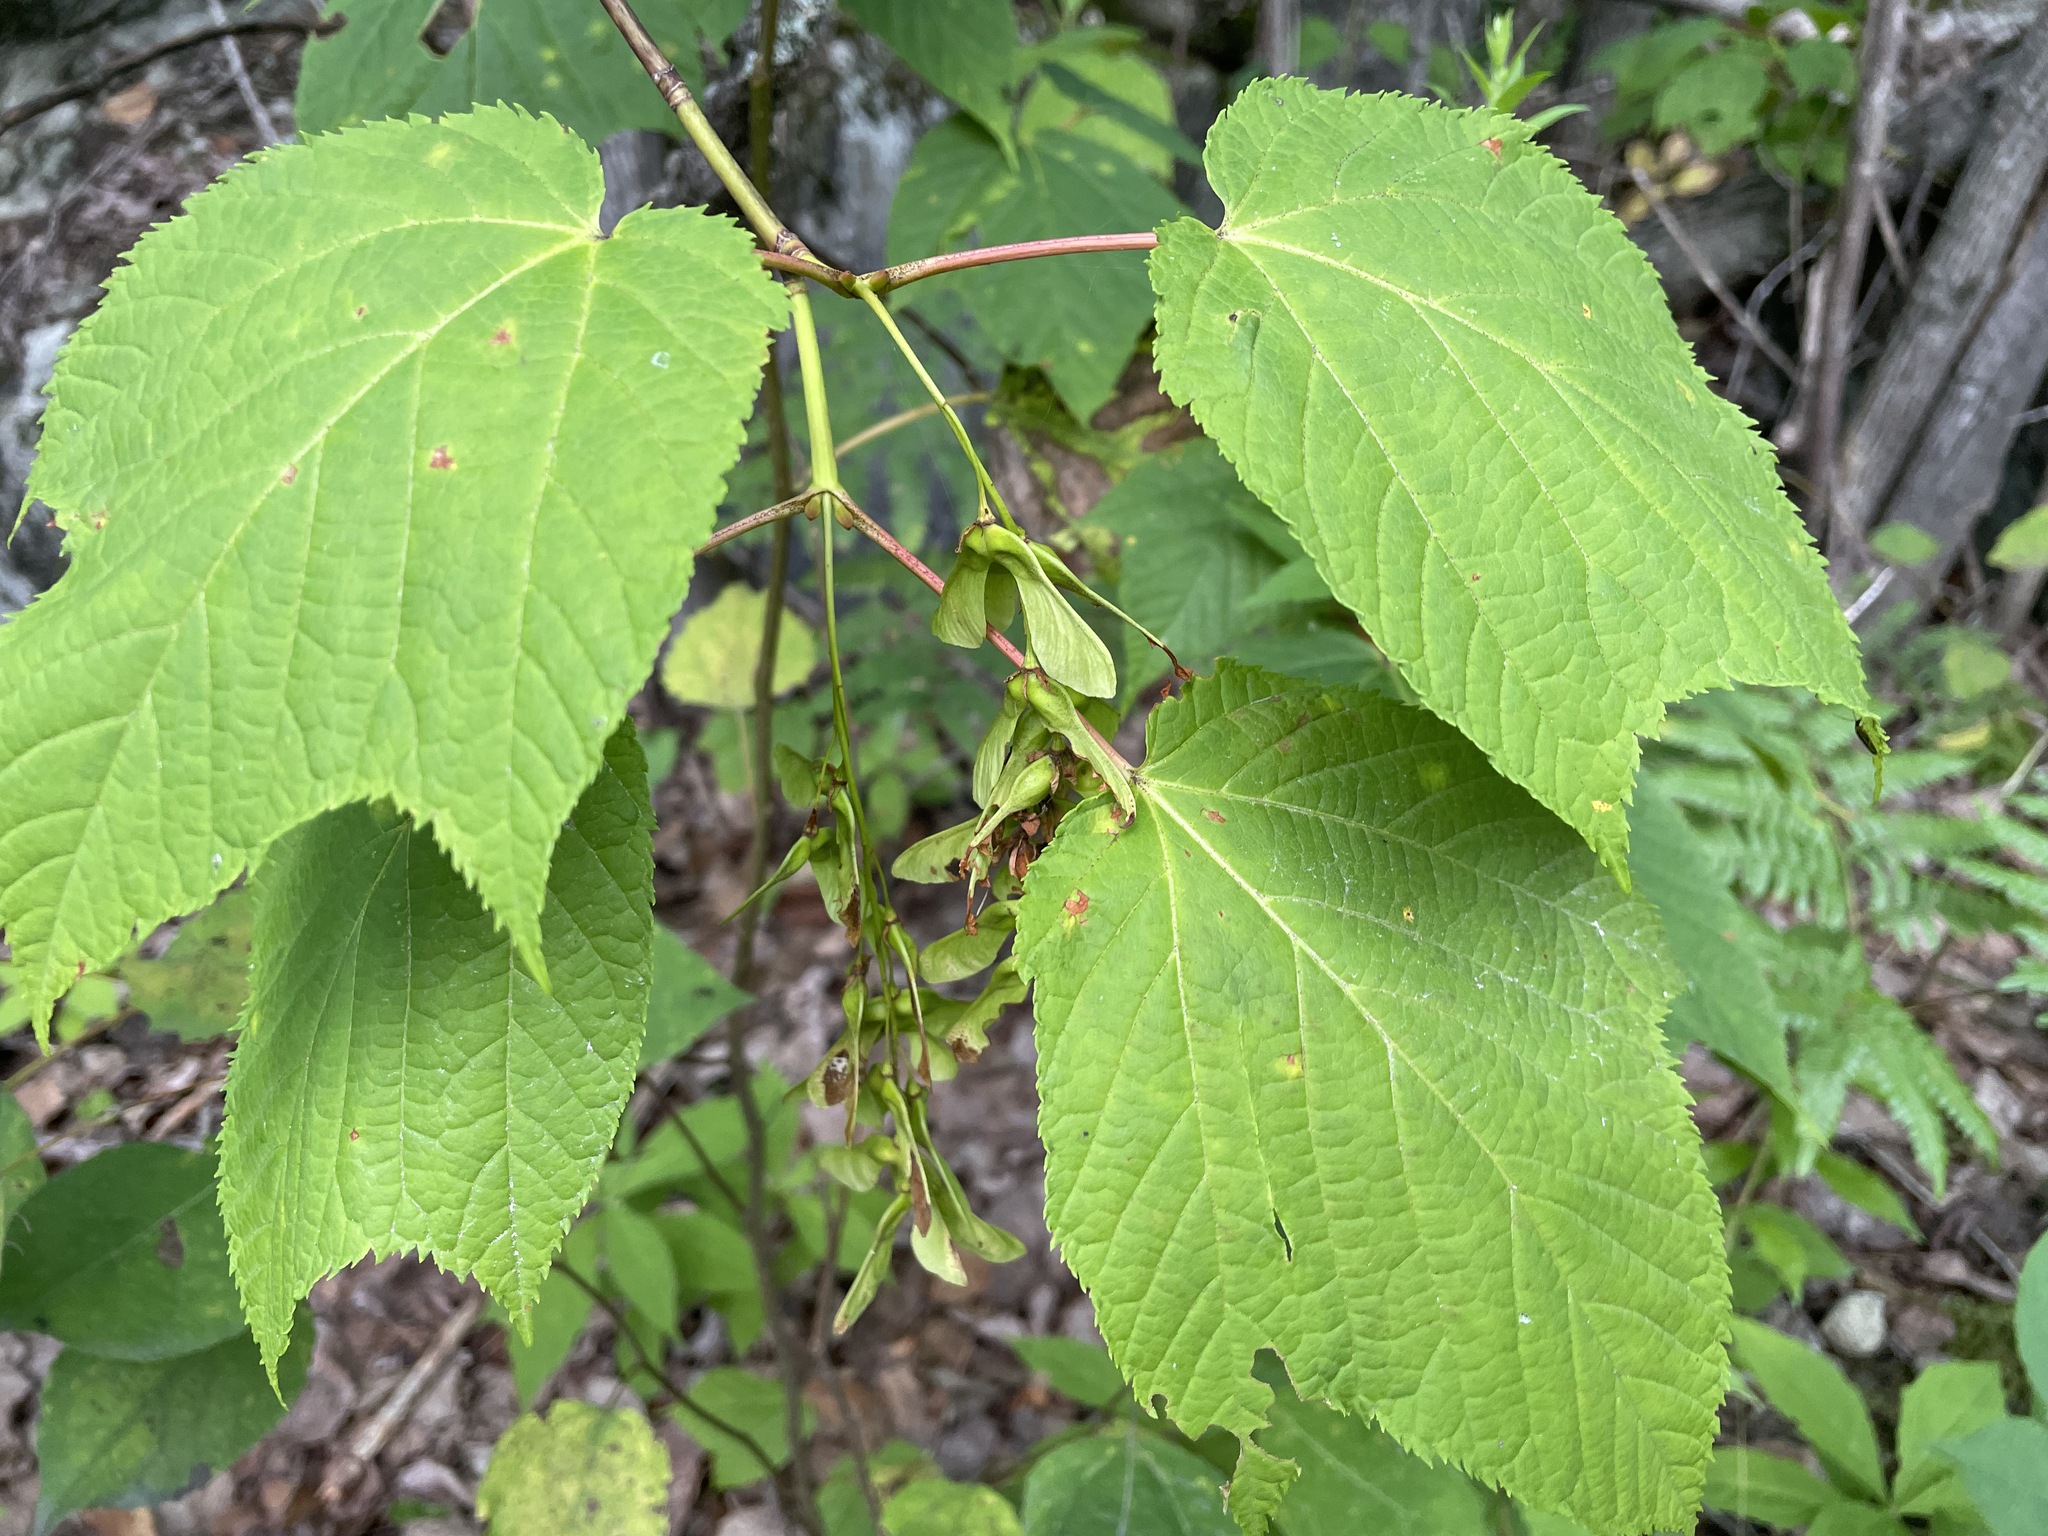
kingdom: Plantae
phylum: Tracheophyta
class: Magnoliopsida
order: Sapindales
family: Sapindaceae
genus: Acer
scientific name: Acer pensylvanicum
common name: Moosewood
